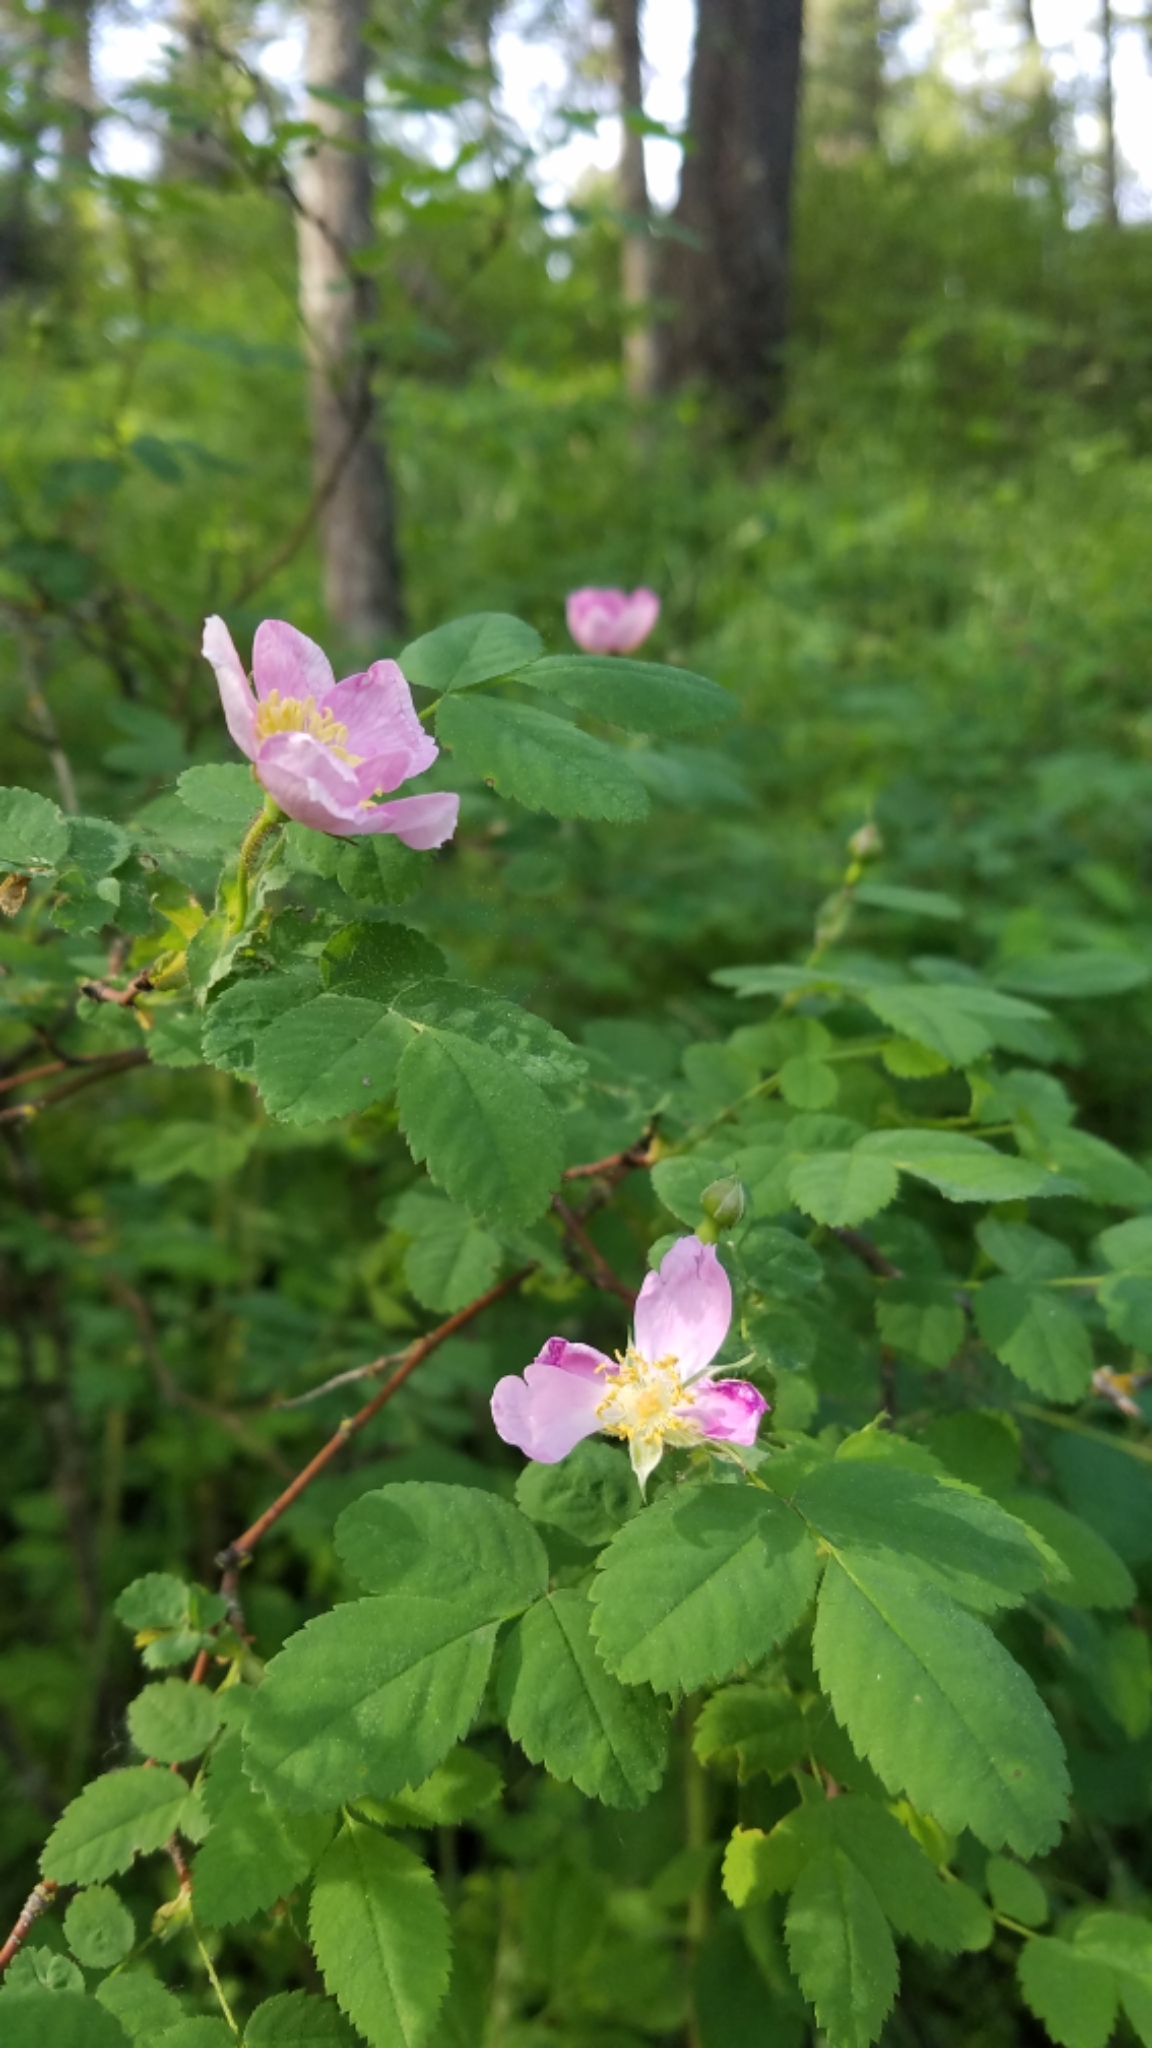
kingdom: Plantae
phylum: Tracheophyta
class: Magnoliopsida
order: Rosales
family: Rosaceae
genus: Rosa
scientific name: Rosa woodsii
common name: Woods's rose
